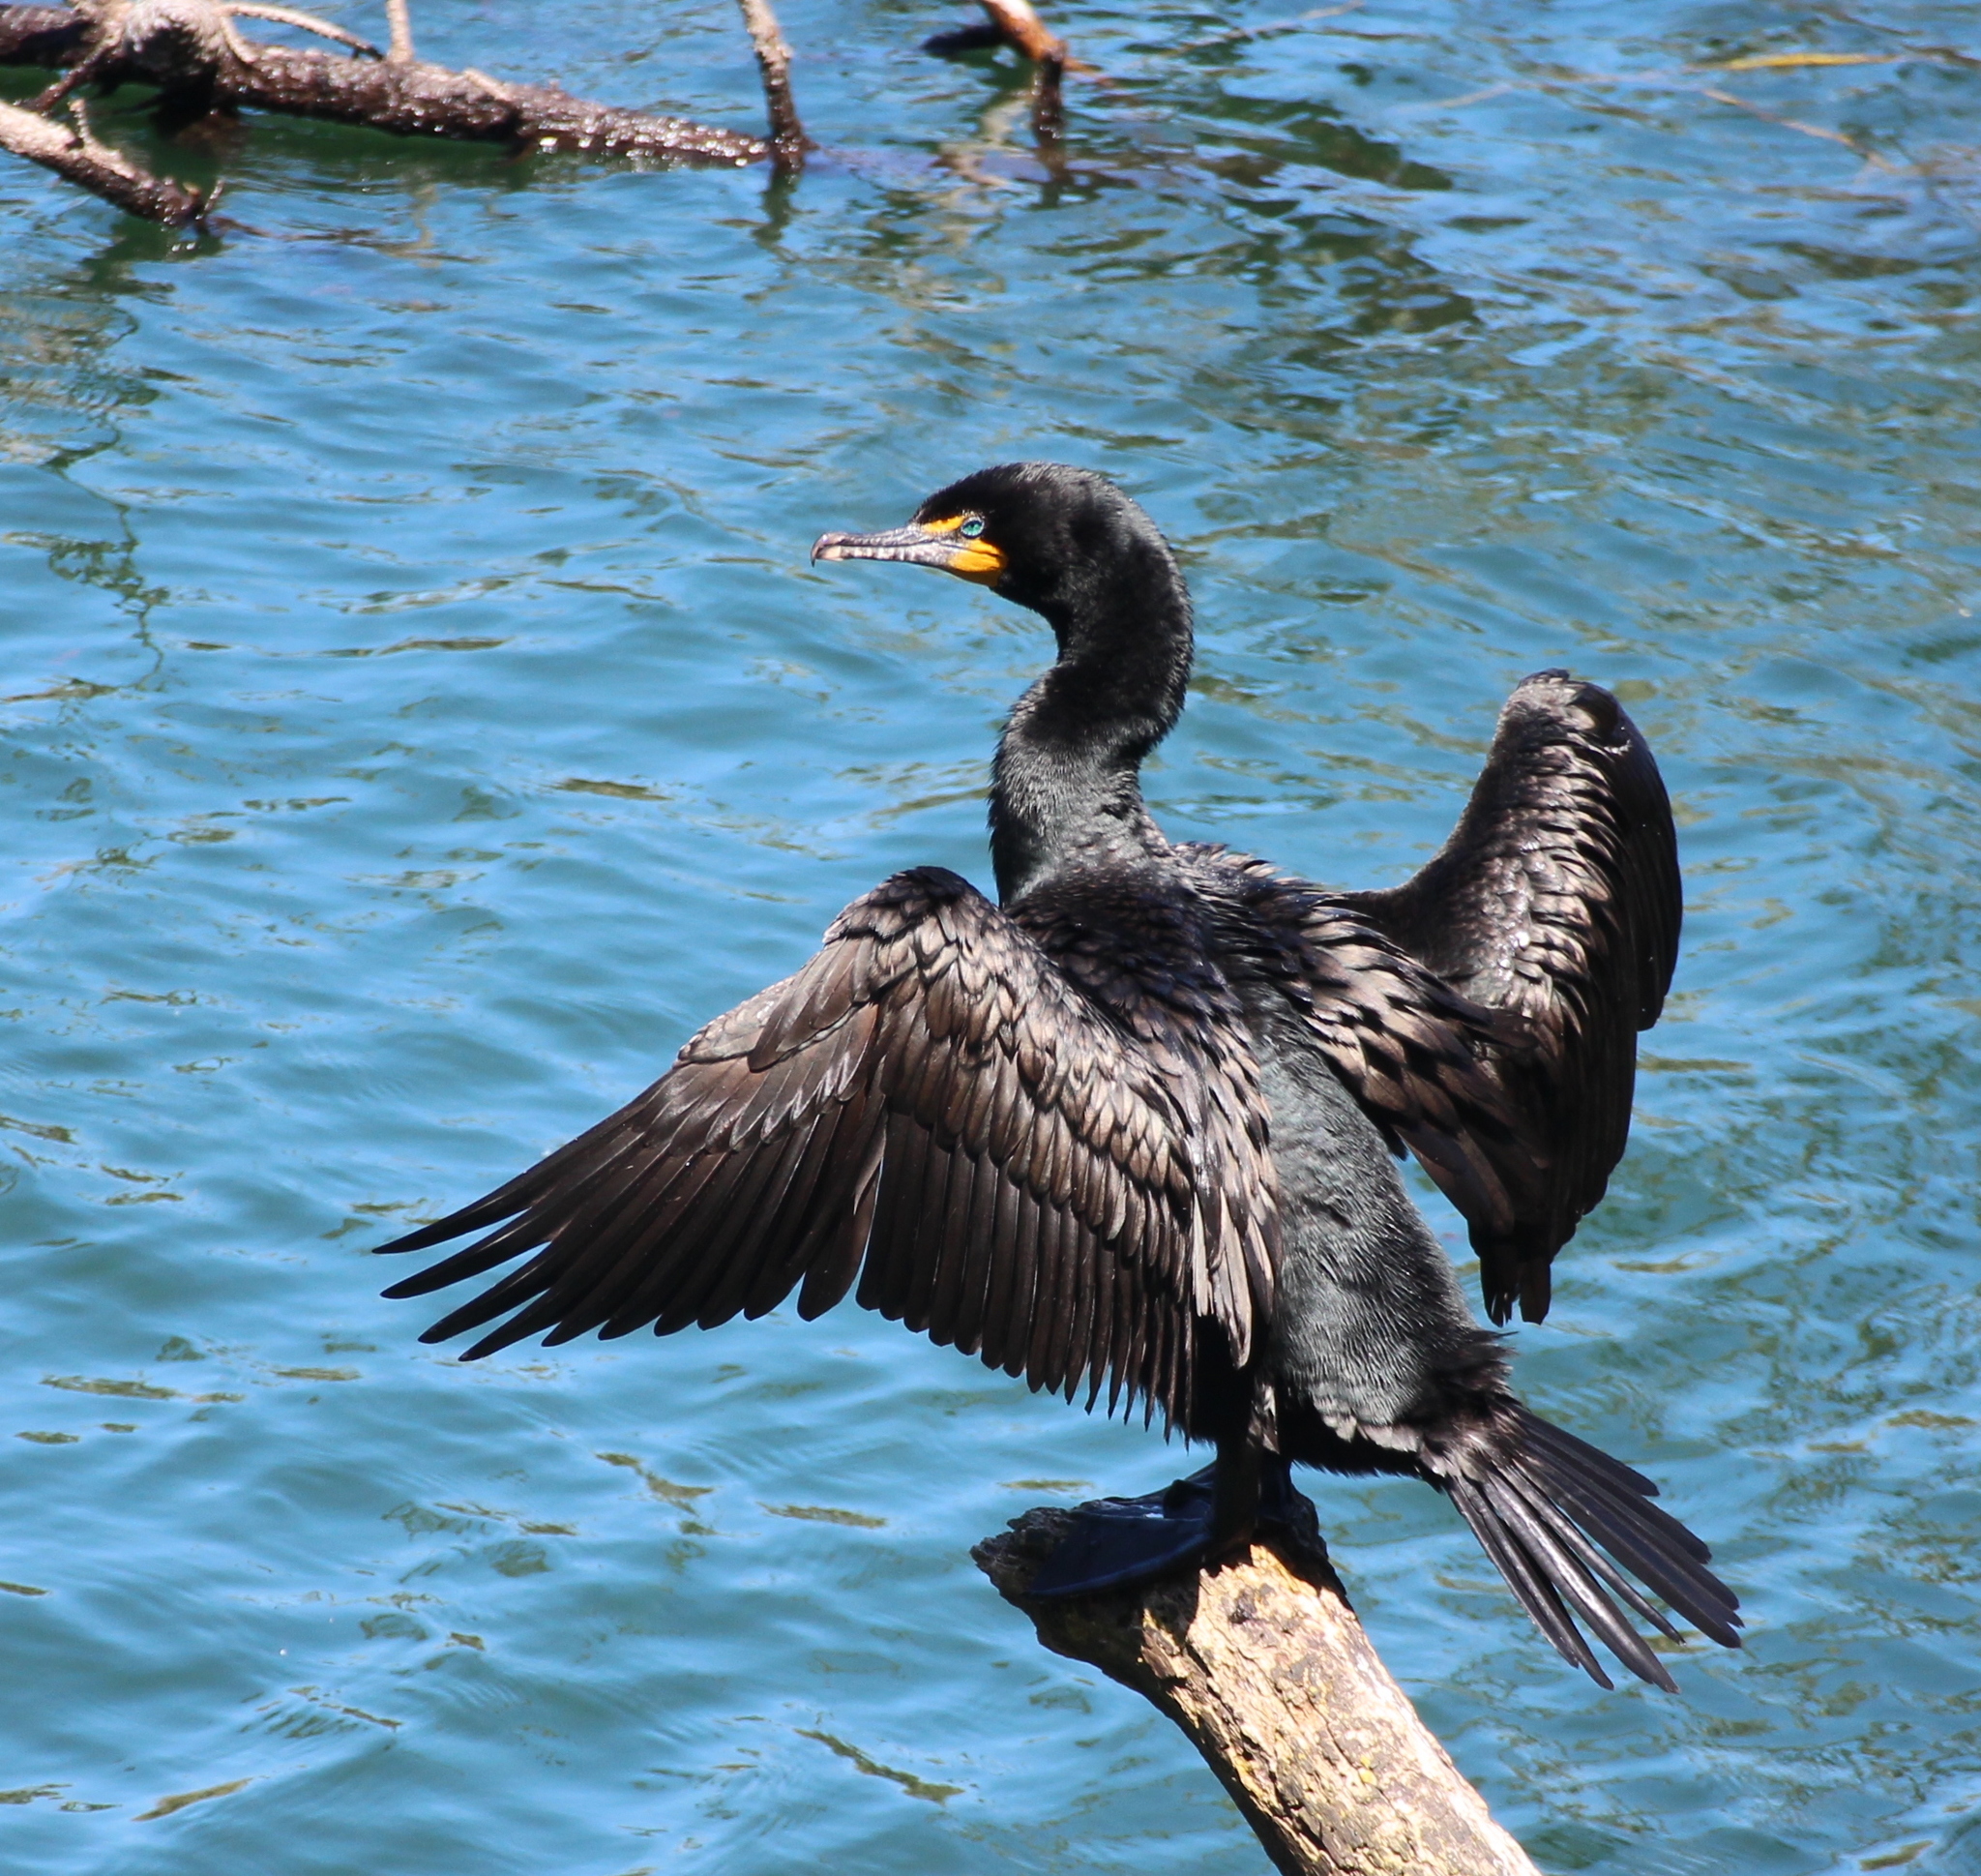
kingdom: Animalia
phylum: Chordata
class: Aves
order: Suliformes
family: Phalacrocoracidae
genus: Phalacrocorax
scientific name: Phalacrocorax auritus
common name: Double-crested cormorant
